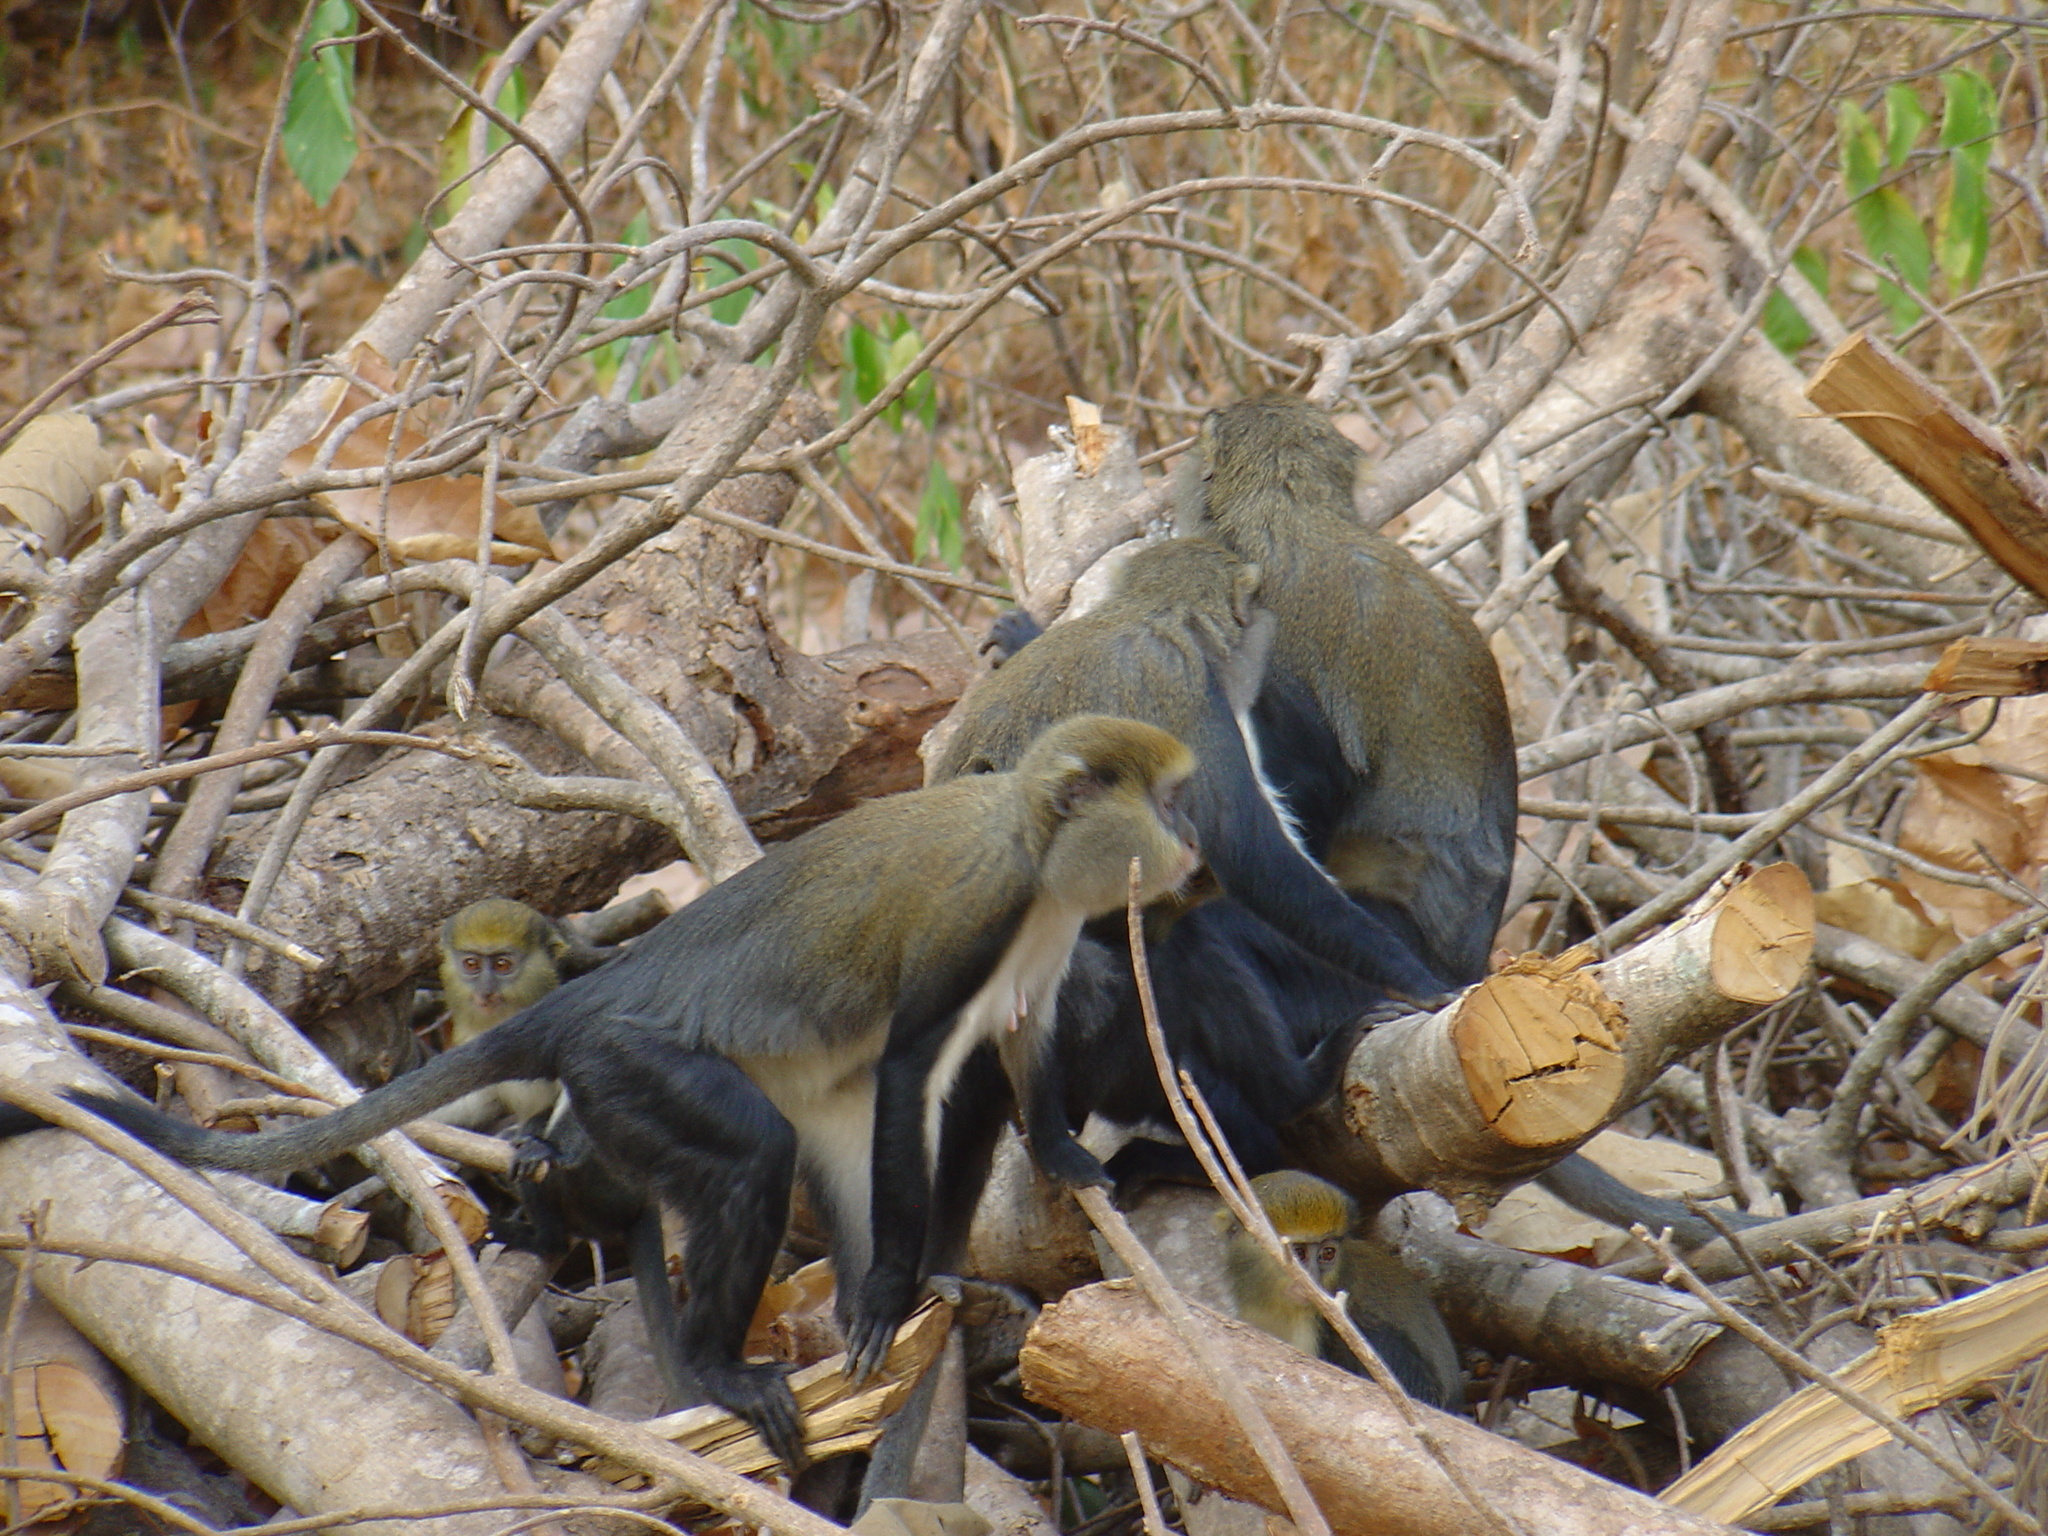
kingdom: Animalia
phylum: Chordata
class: Mammalia
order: Primates
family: Cercopithecidae
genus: Cercopithecus
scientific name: Cercopithecus mona
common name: Mona monkey
